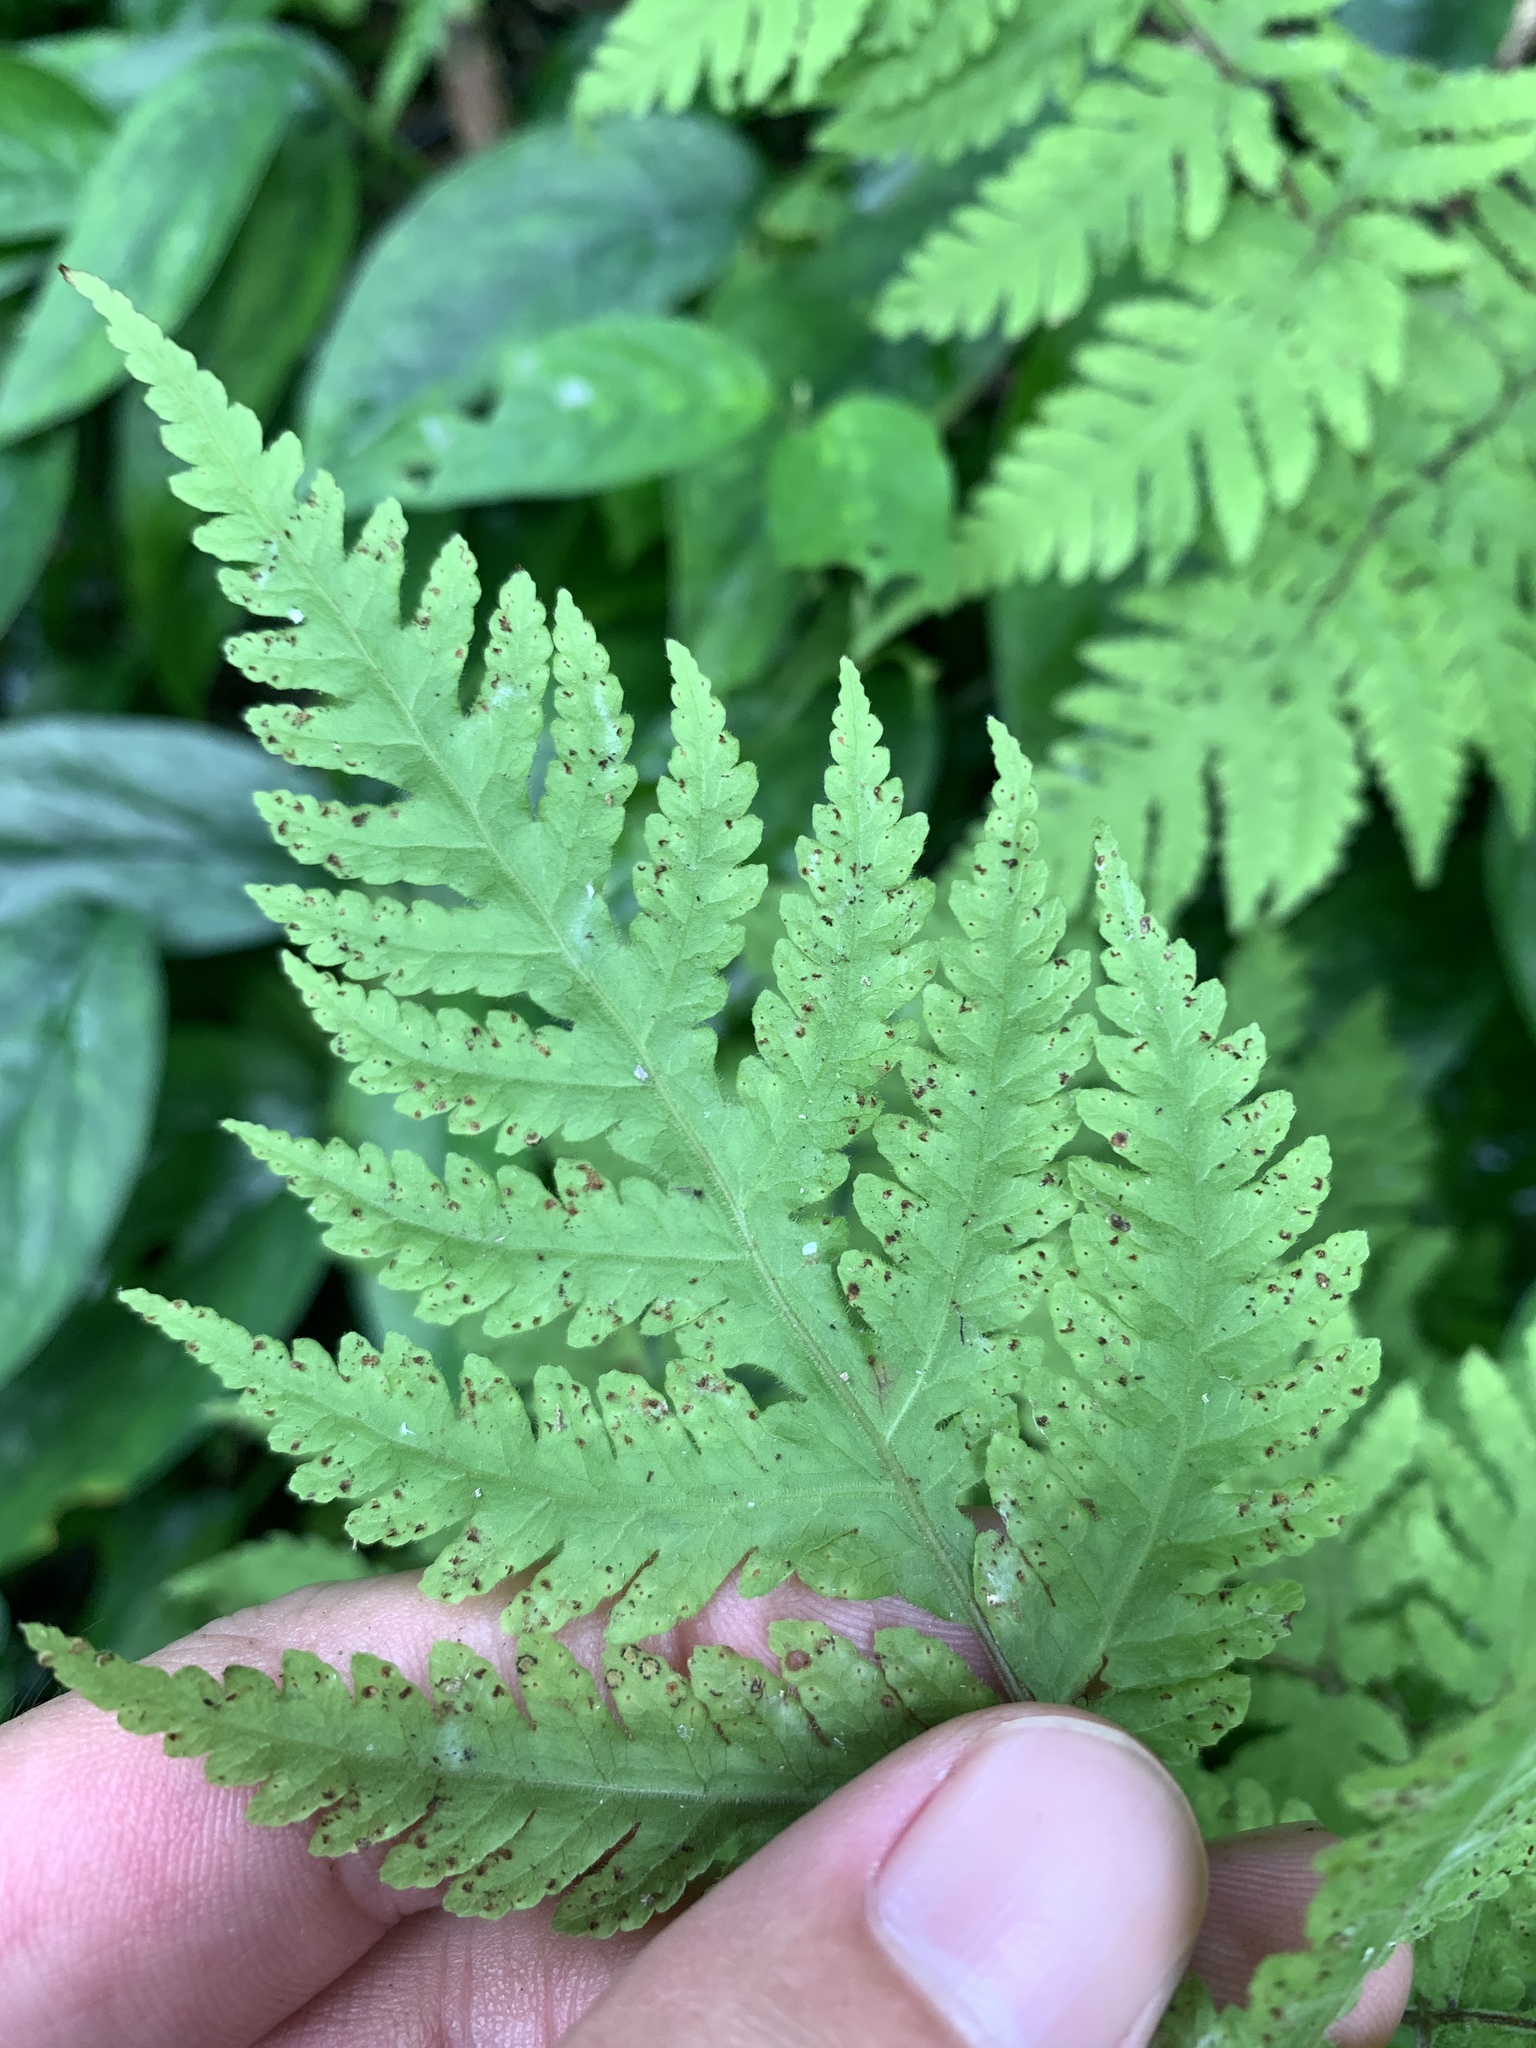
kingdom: Plantae
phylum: Tracheophyta
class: Polypodiopsida
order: Polypodiales
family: Tectariaceae
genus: Tectaria
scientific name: Tectaria membranacea
